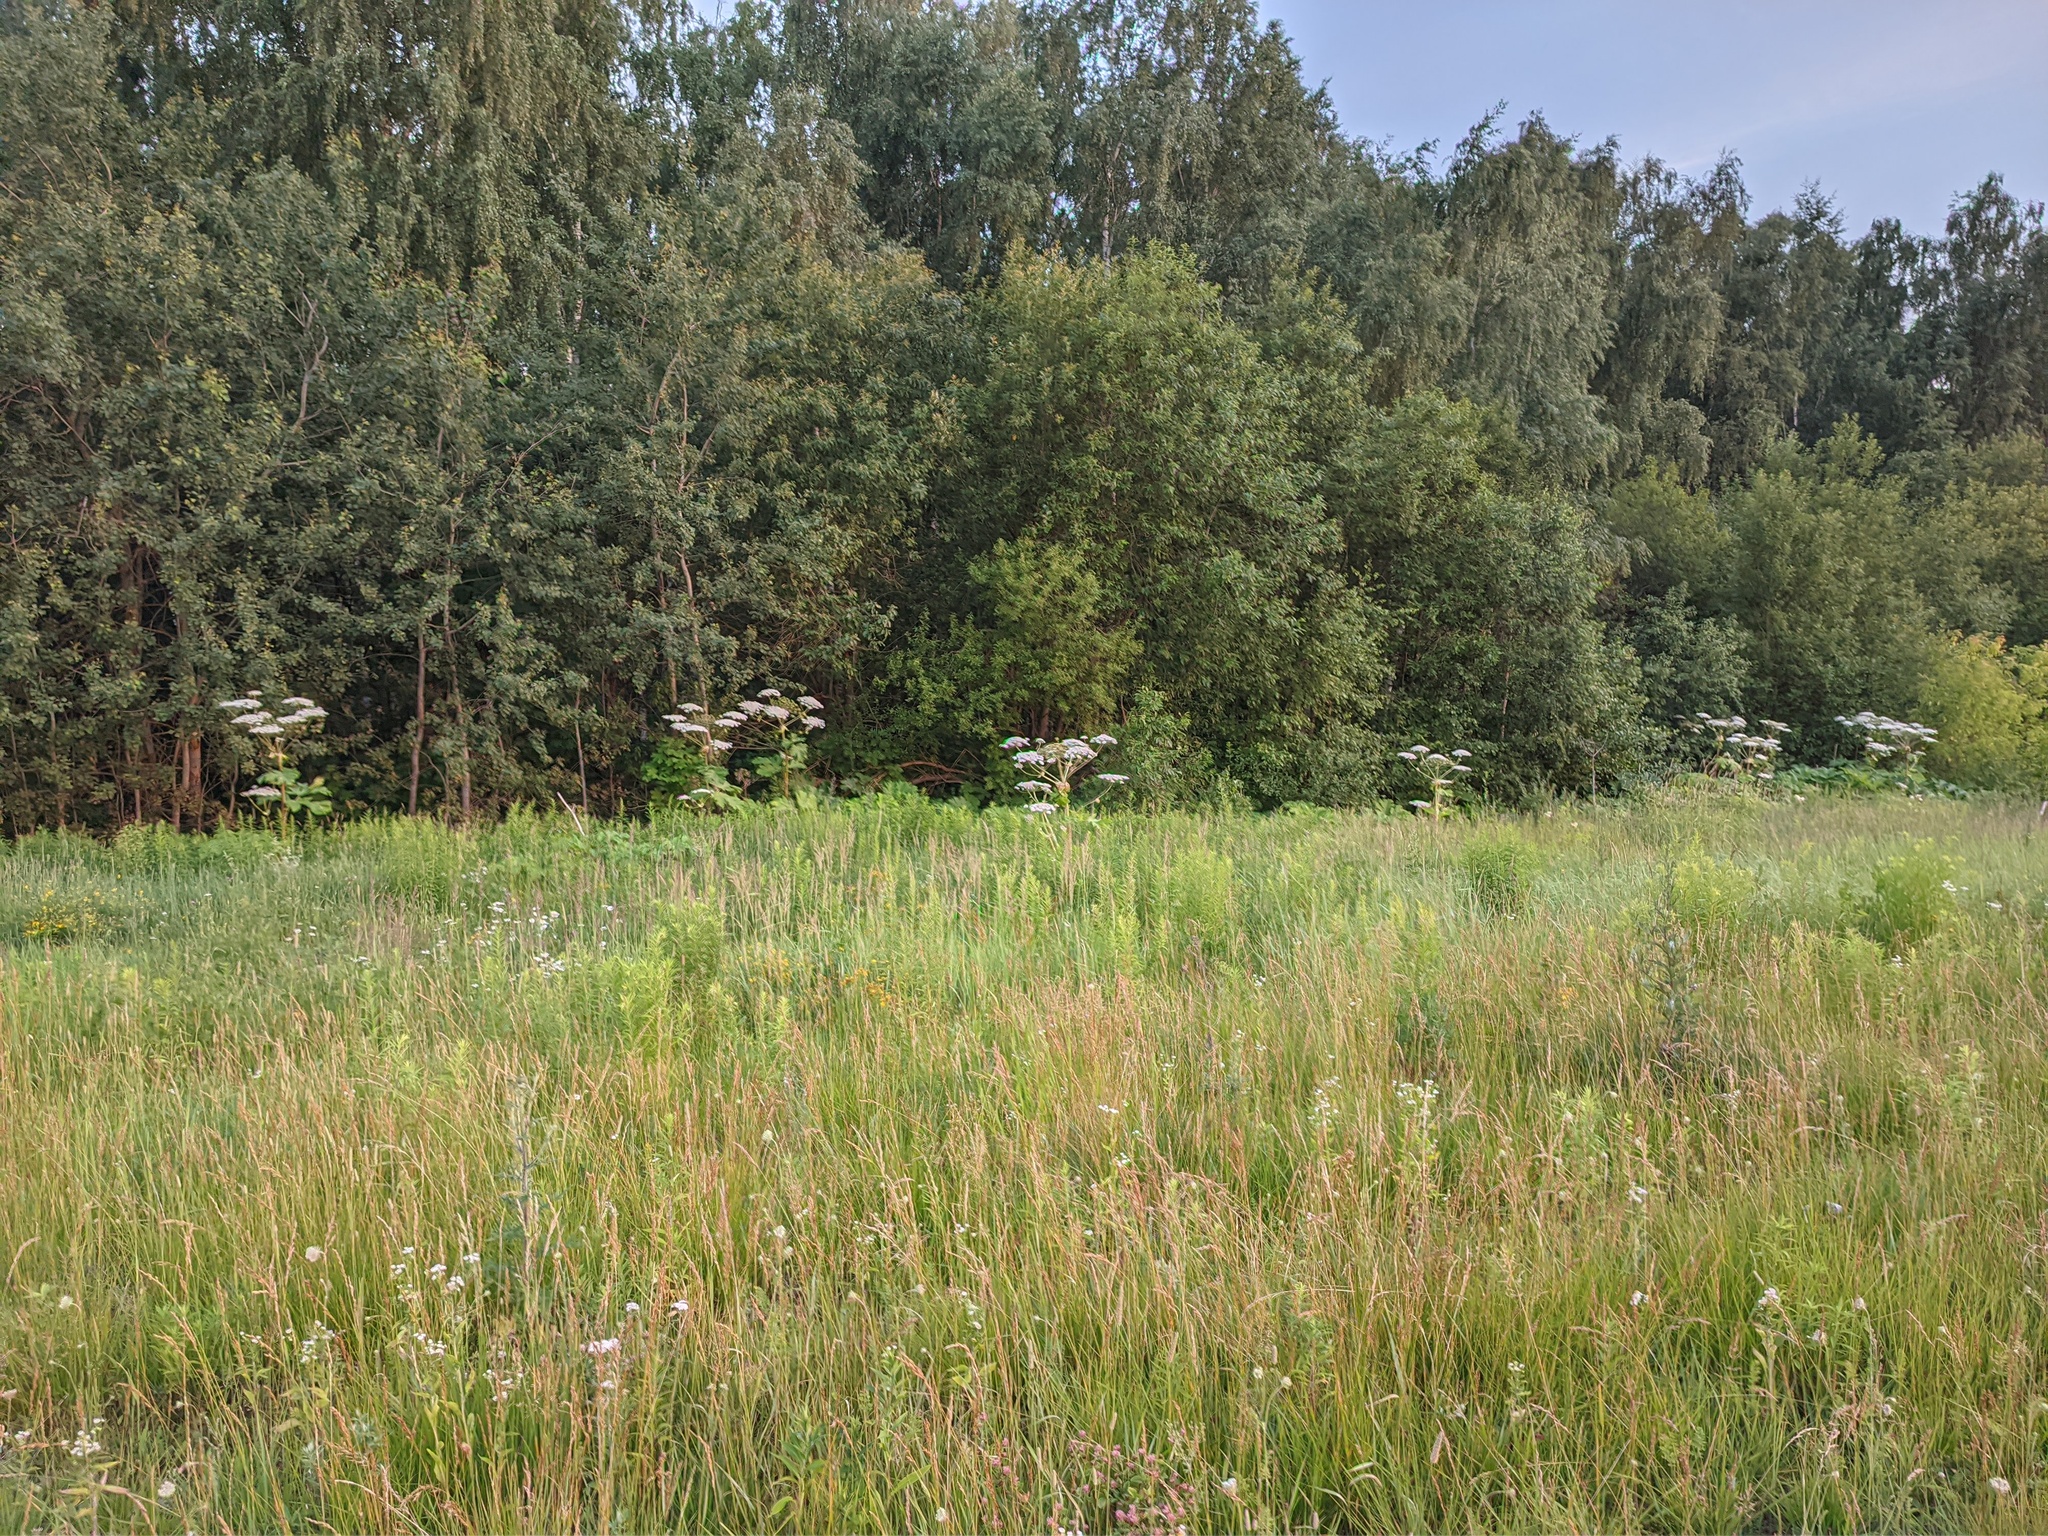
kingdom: Plantae
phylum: Tracheophyta
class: Magnoliopsida
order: Apiales
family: Apiaceae
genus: Heracleum
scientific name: Heracleum sosnowskyi
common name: Sosnowsky's hogweed
